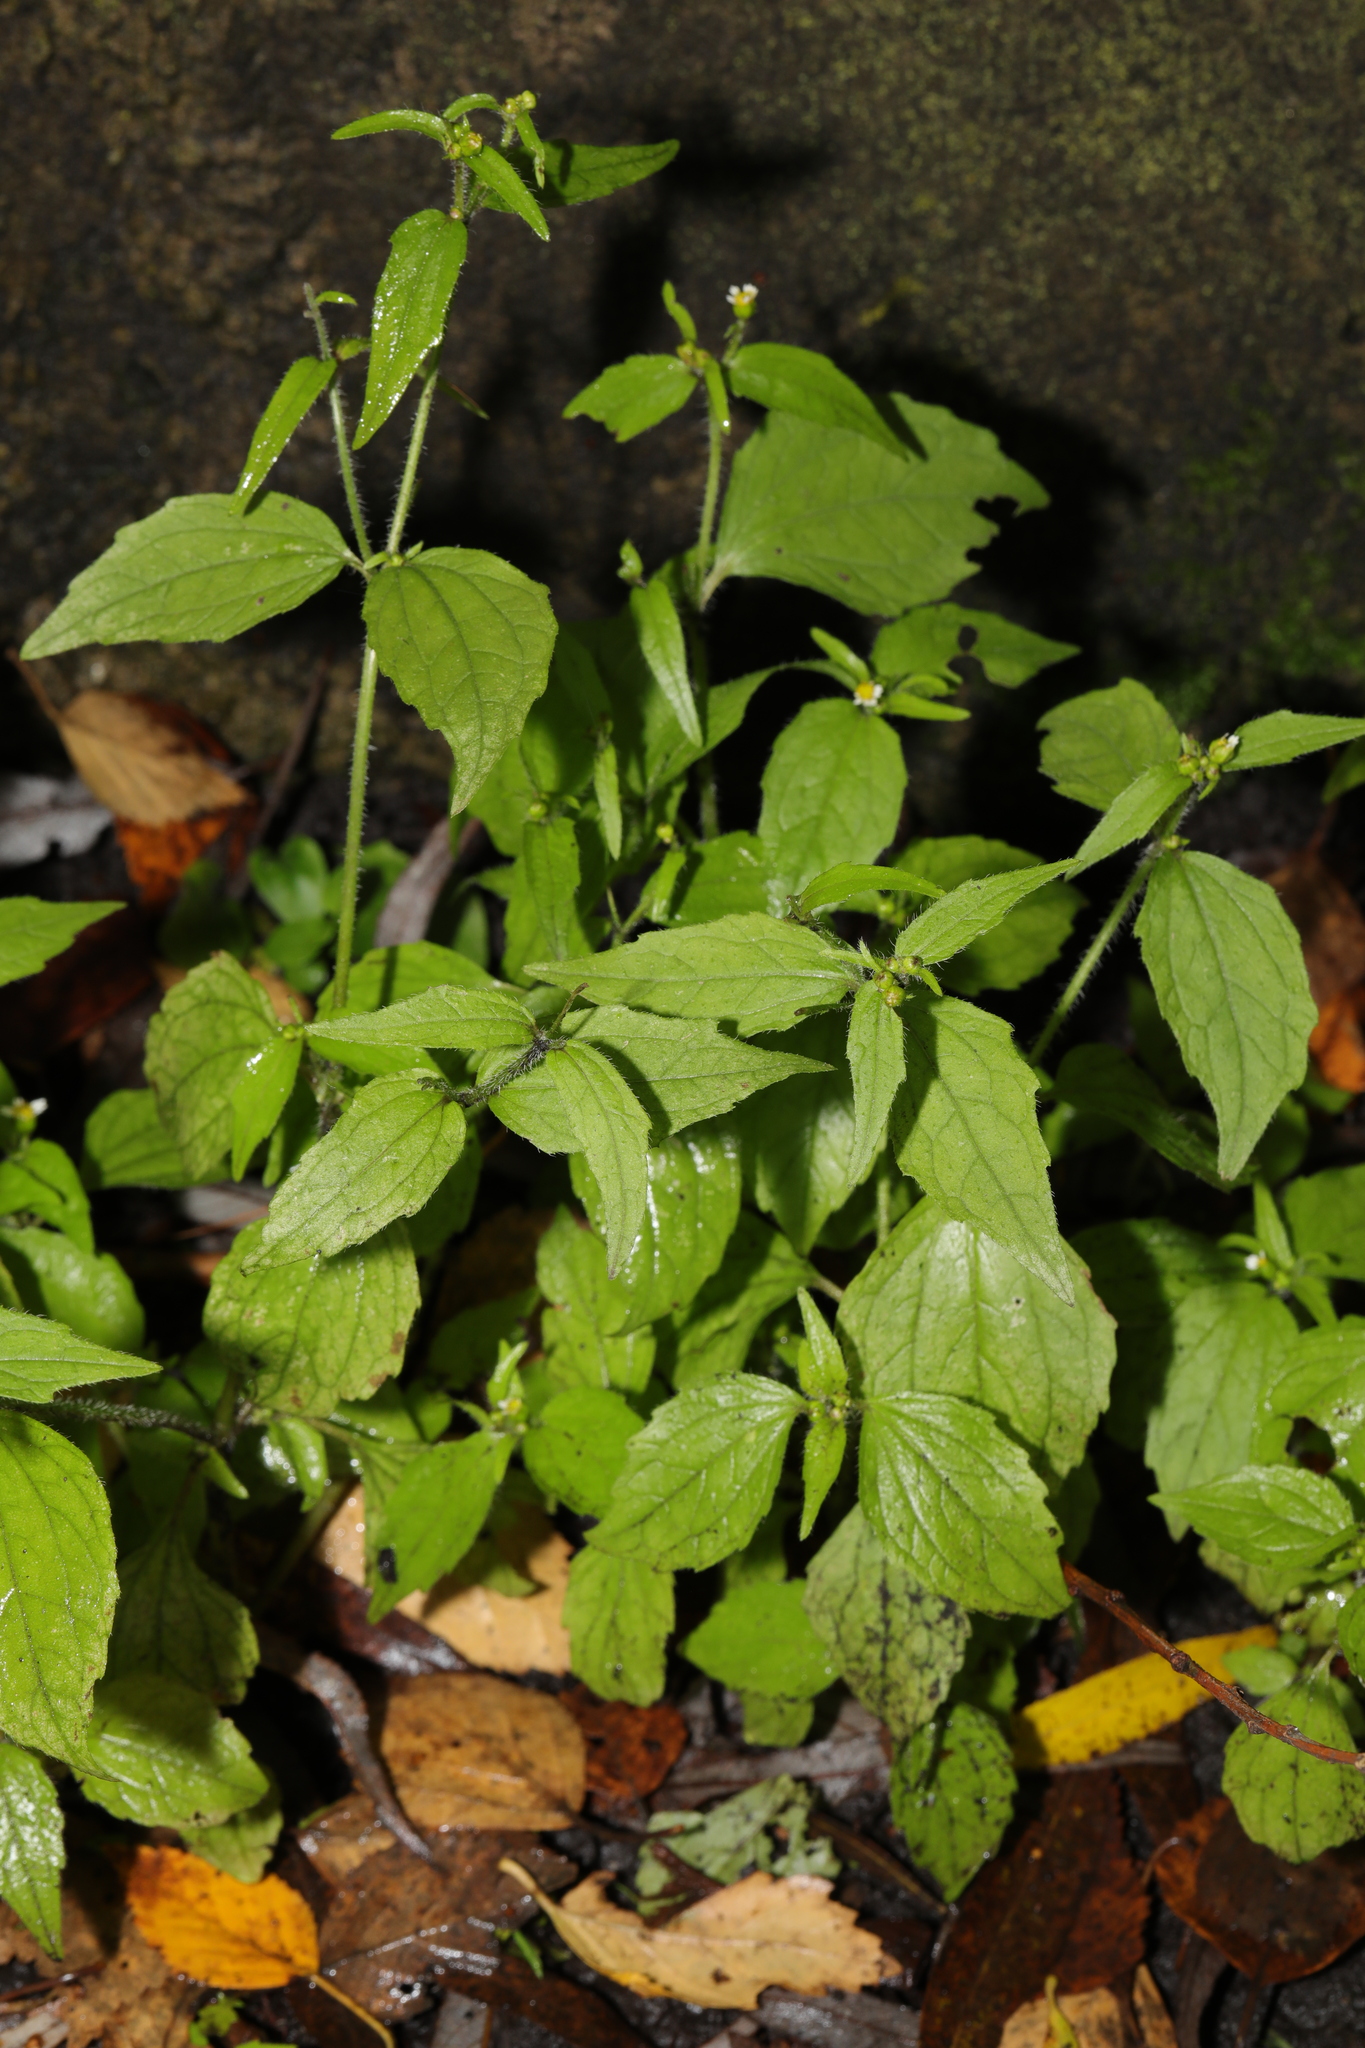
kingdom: Plantae
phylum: Tracheophyta
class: Magnoliopsida
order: Asterales
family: Asteraceae
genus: Galinsoga
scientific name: Galinsoga quadriradiata
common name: Shaggy soldier
